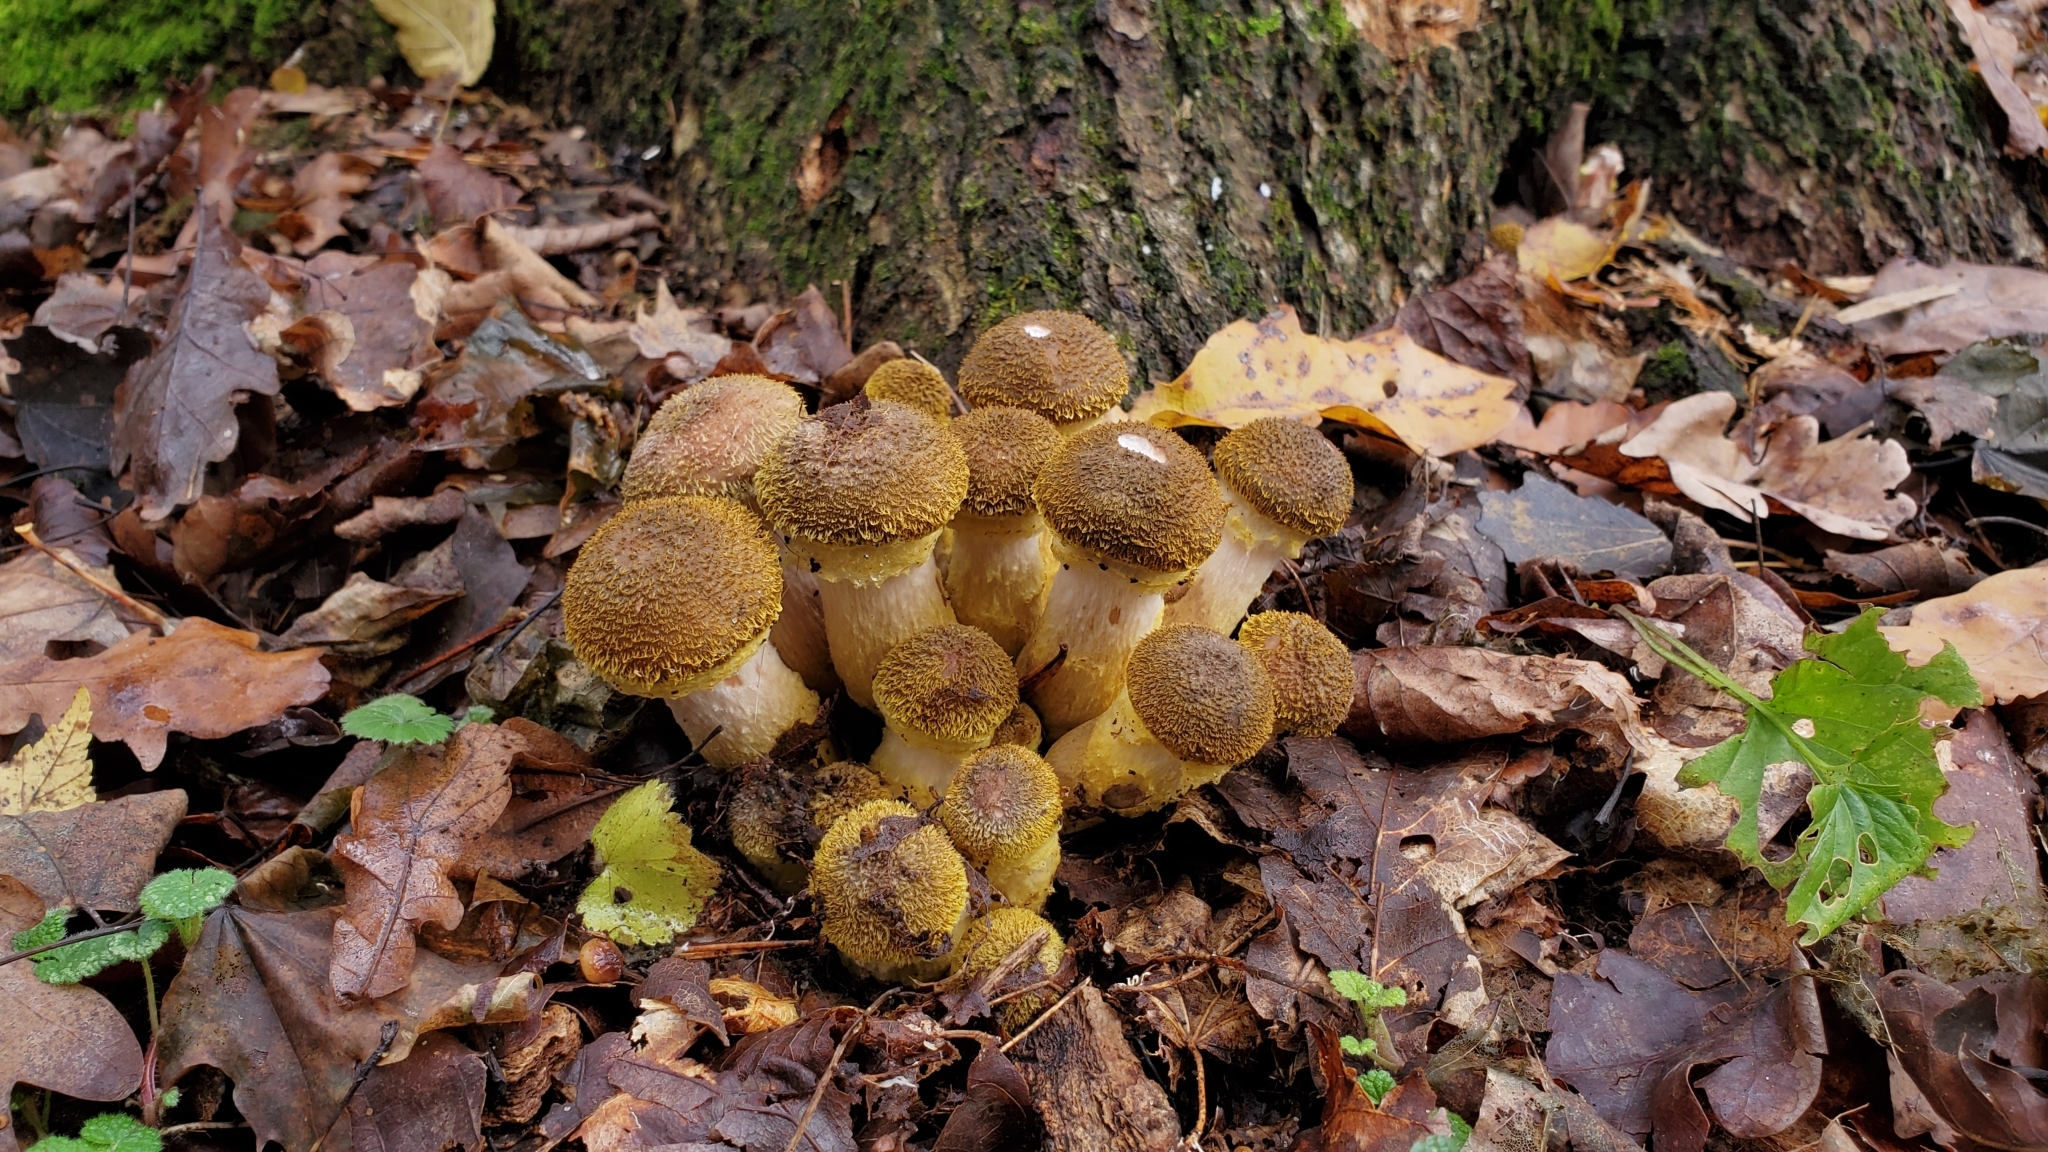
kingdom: Fungi
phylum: Basidiomycota
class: Agaricomycetes
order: Agaricales
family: Physalacriaceae
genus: Armillaria
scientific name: Armillaria gallica
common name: Bulbous honey fungus
